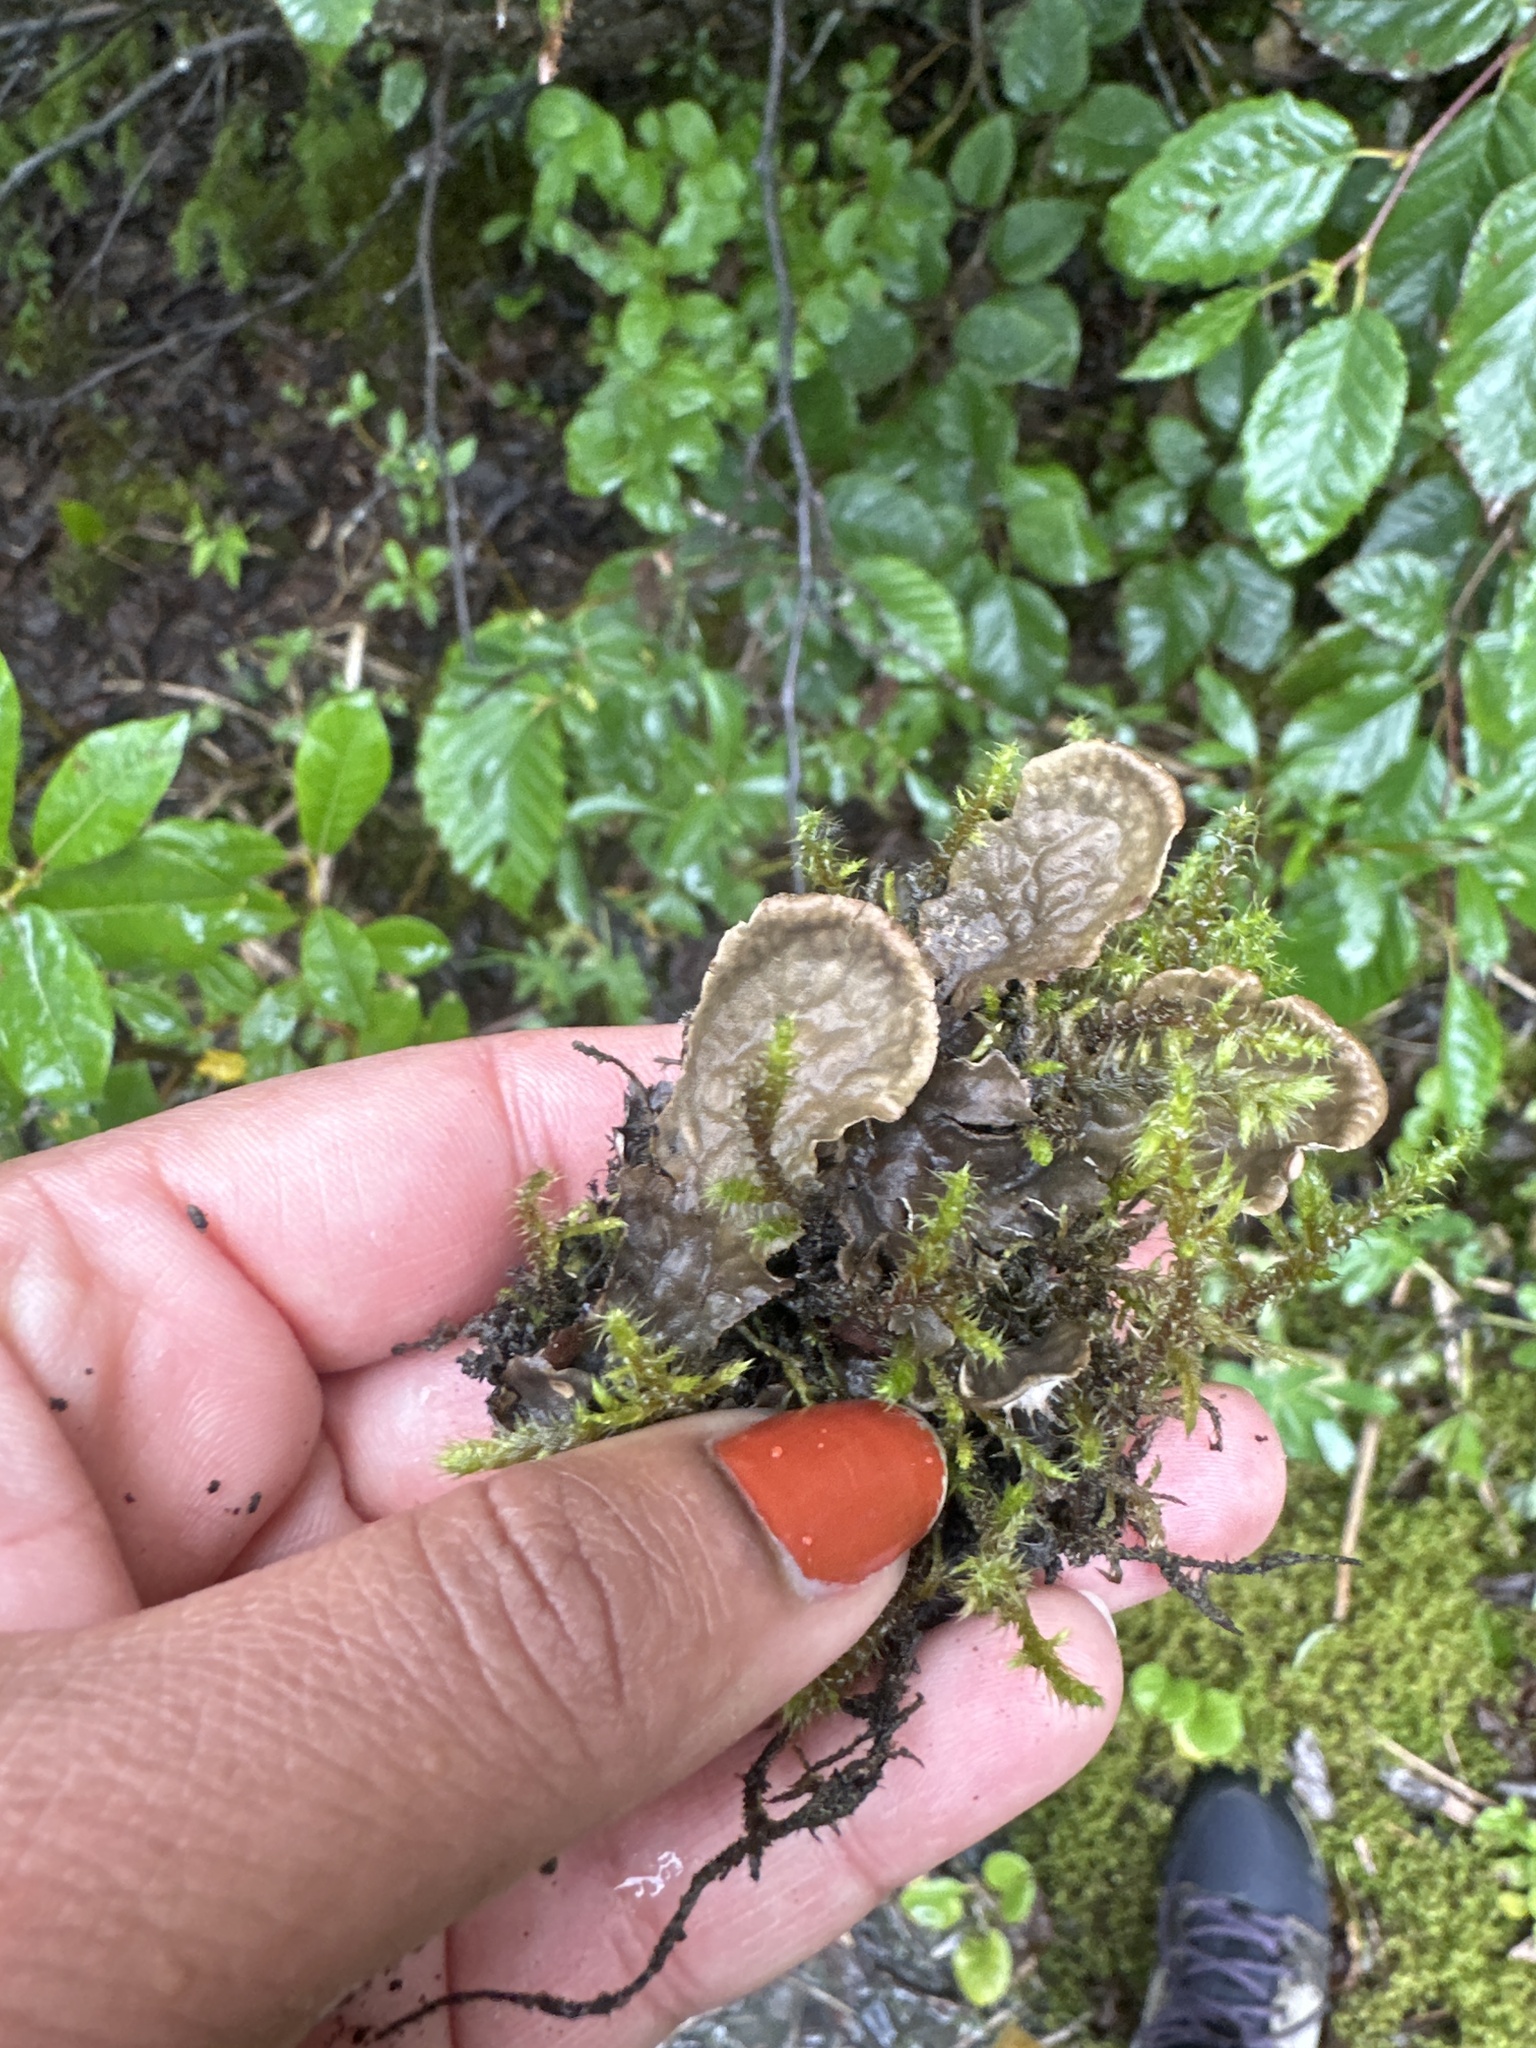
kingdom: Fungi
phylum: Ascomycota
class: Lecanoromycetes
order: Peltigerales
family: Peltigeraceae
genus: Peltigera
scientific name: Peltigera membranacea
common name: Membranous pelt lichen
